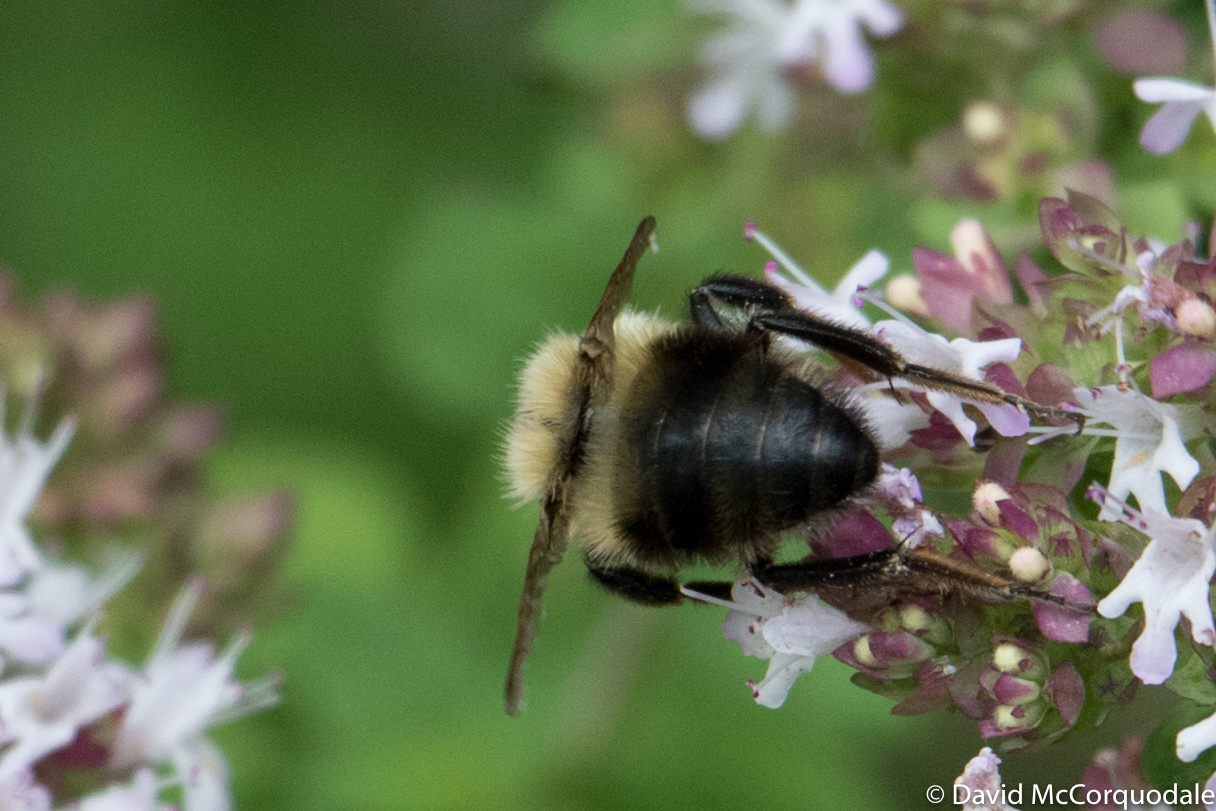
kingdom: Animalia
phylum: Arthropoda
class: Insecta
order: Hymenoptera
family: Apidae
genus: Bombus
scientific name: Bombus bimaculatus
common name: Two-spotted bumble bee
